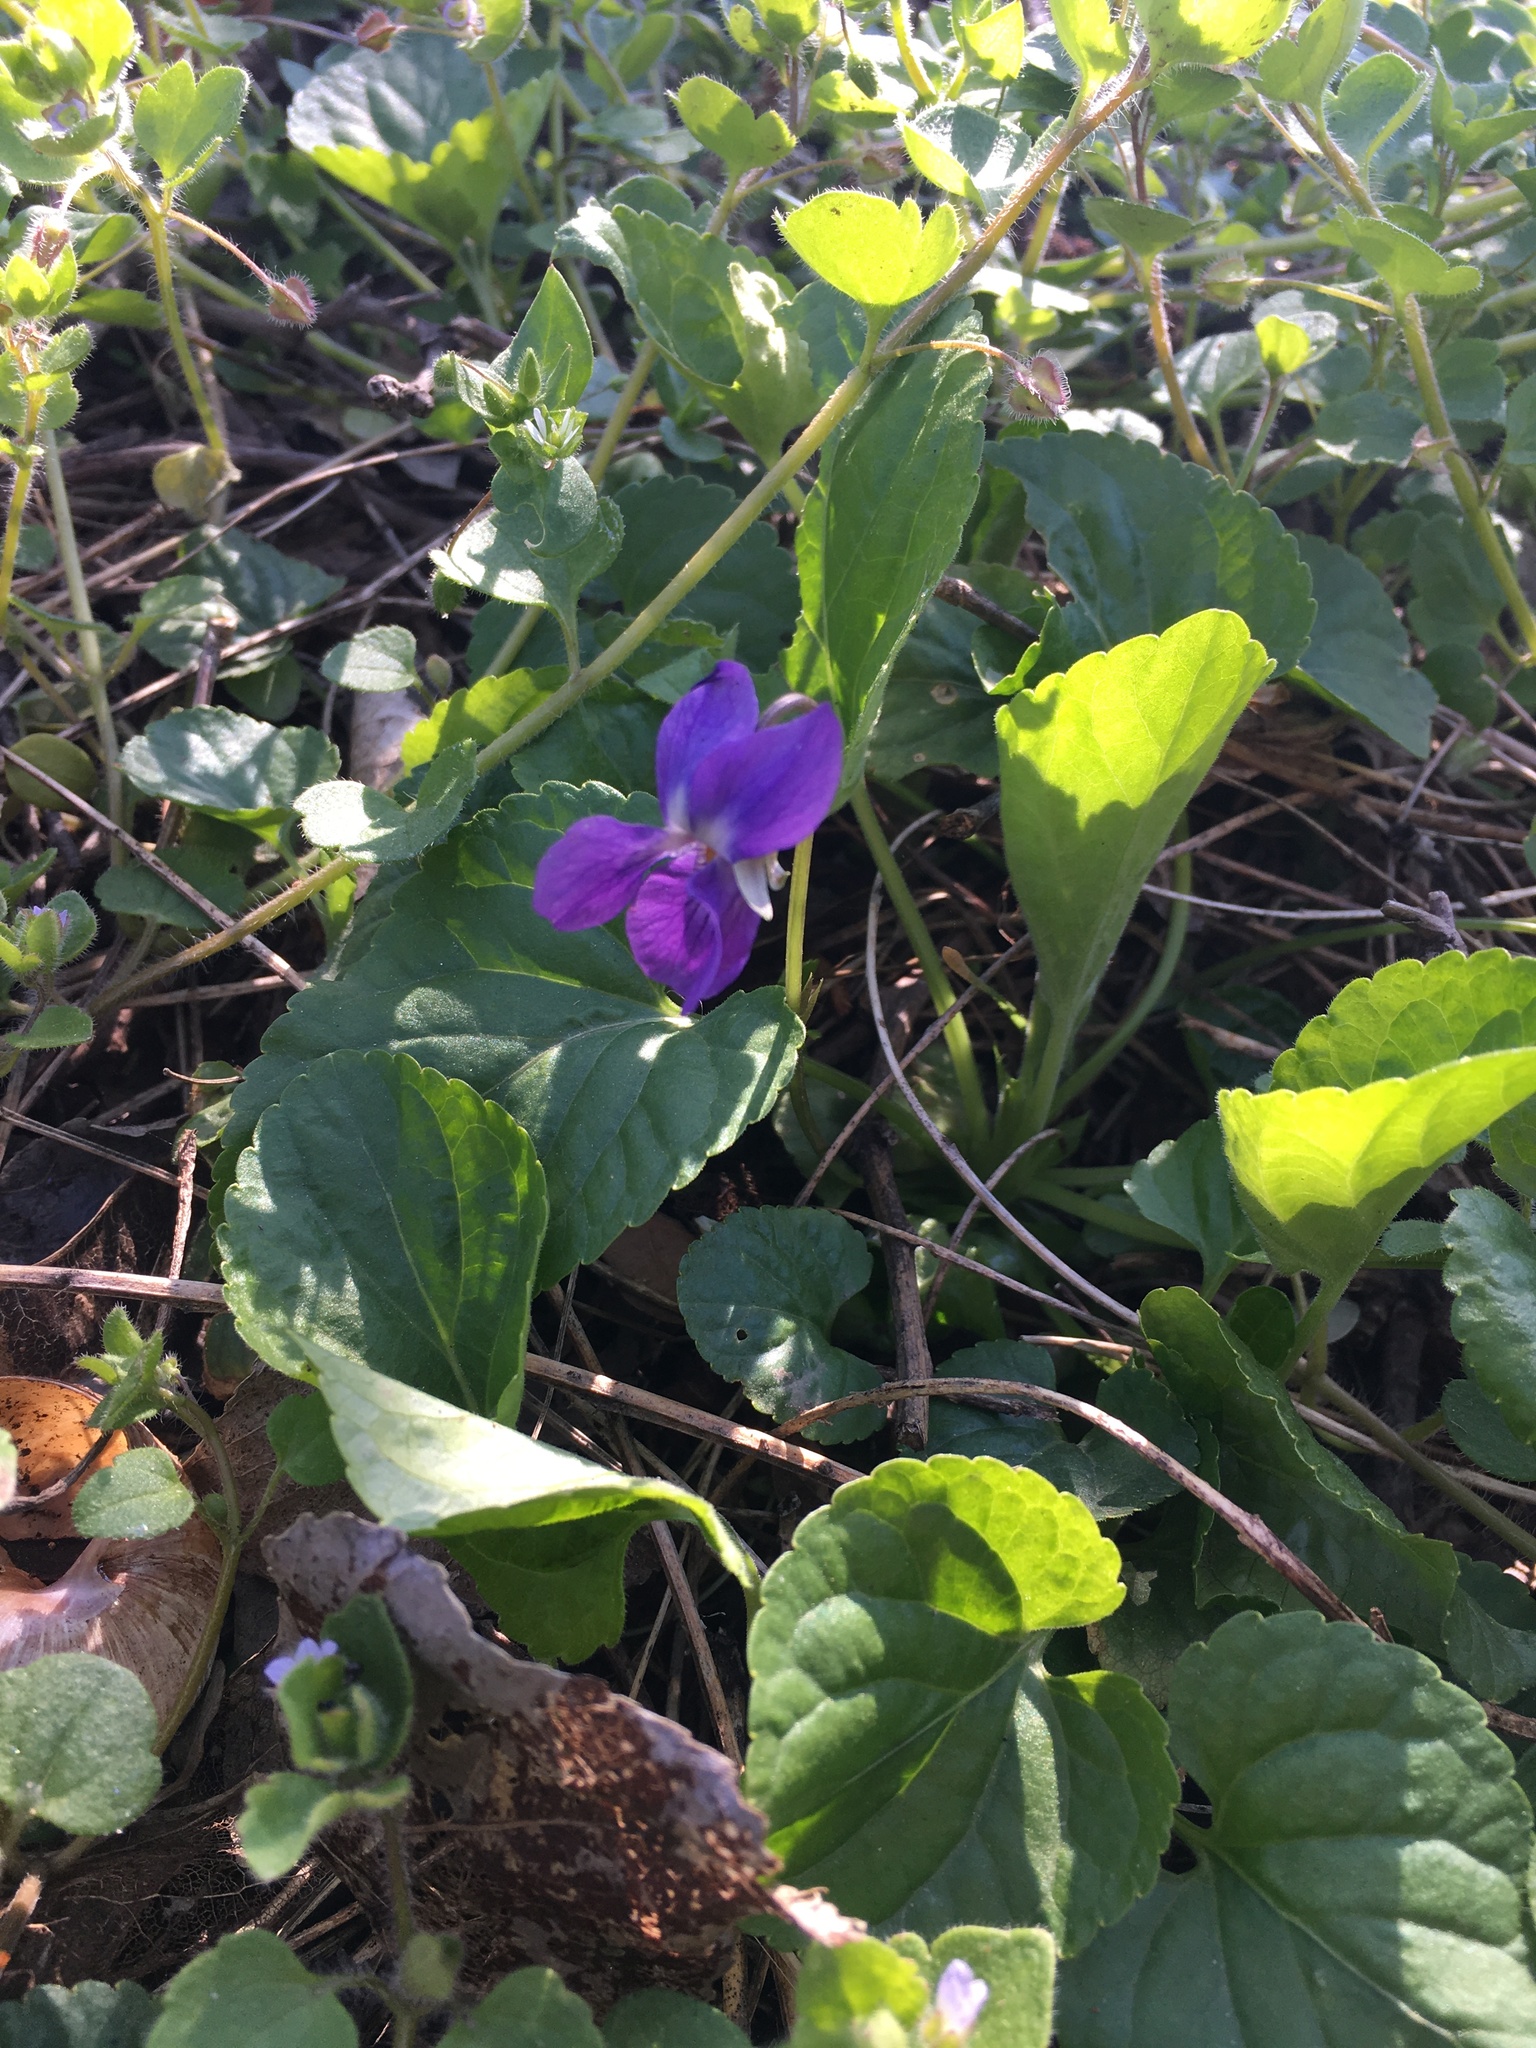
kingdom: Plantae
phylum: Tracheophyta
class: Magnoliopsida
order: Malpighiales
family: Violaceae
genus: Viola
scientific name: Viola odorata
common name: Sweet violet
